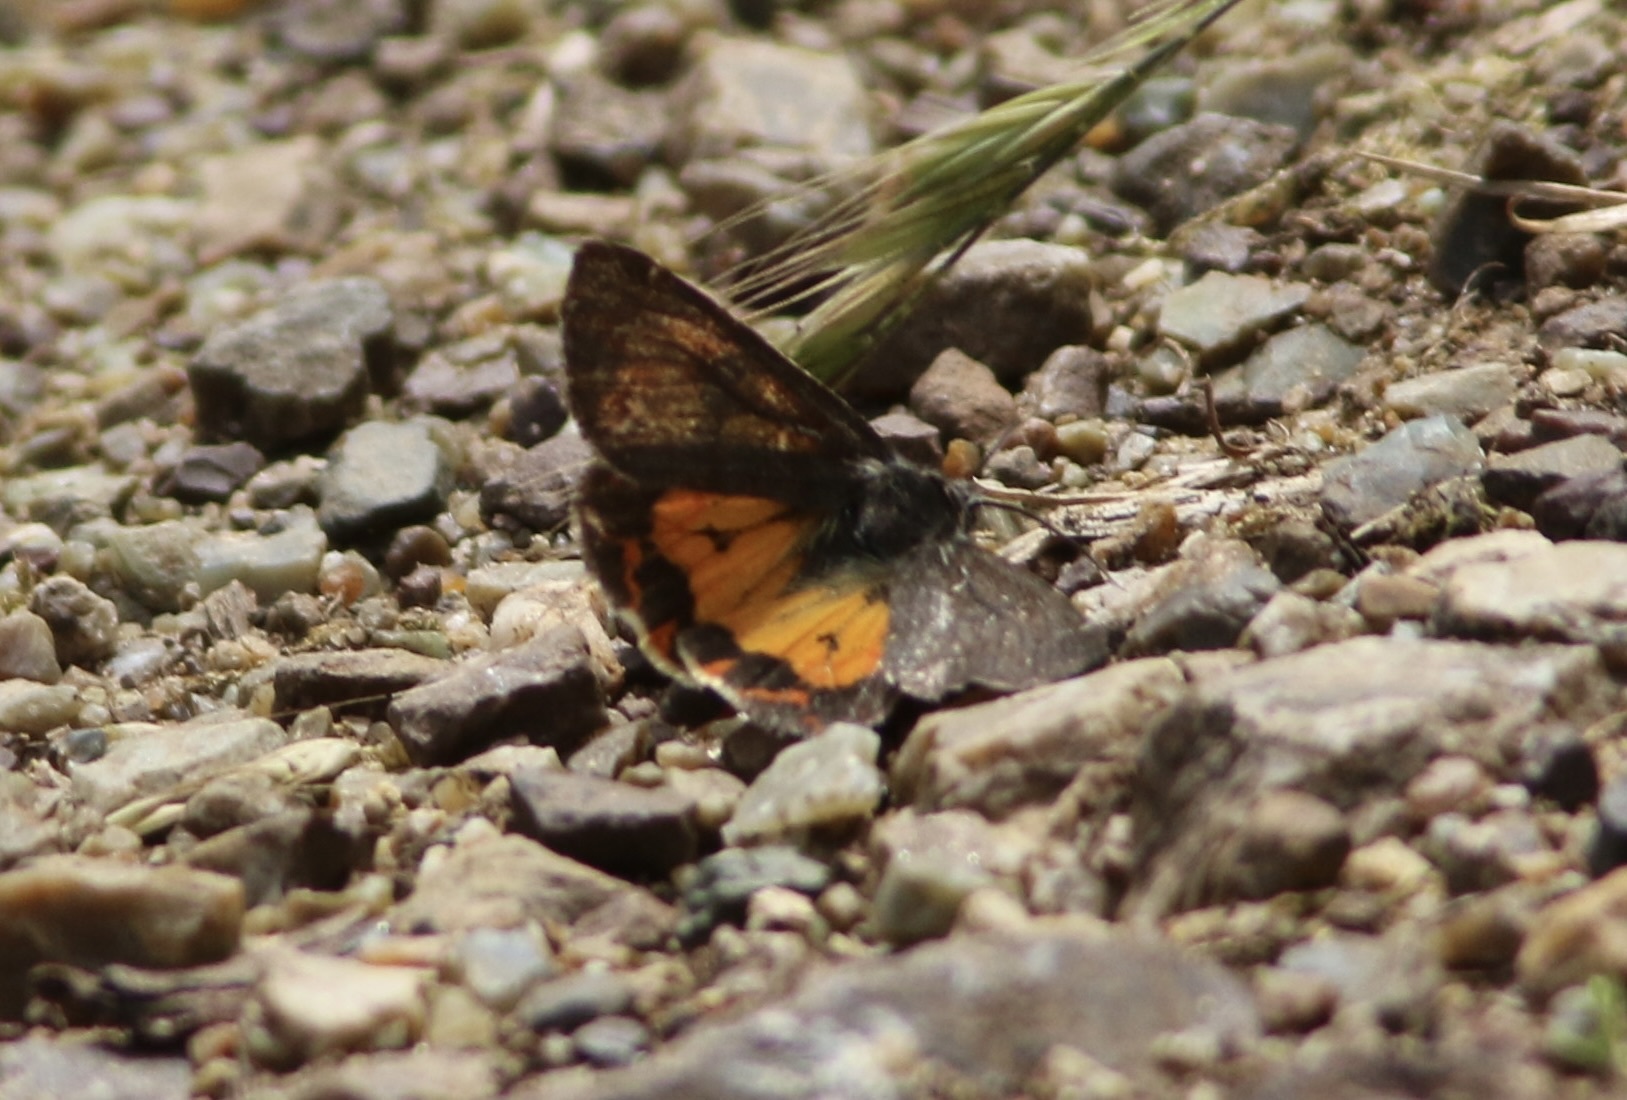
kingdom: Animalia
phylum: Arthropoda
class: Insecta
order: Lepidoptera
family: Erebidae
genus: Leptarctia
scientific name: Leptarctia californiae
